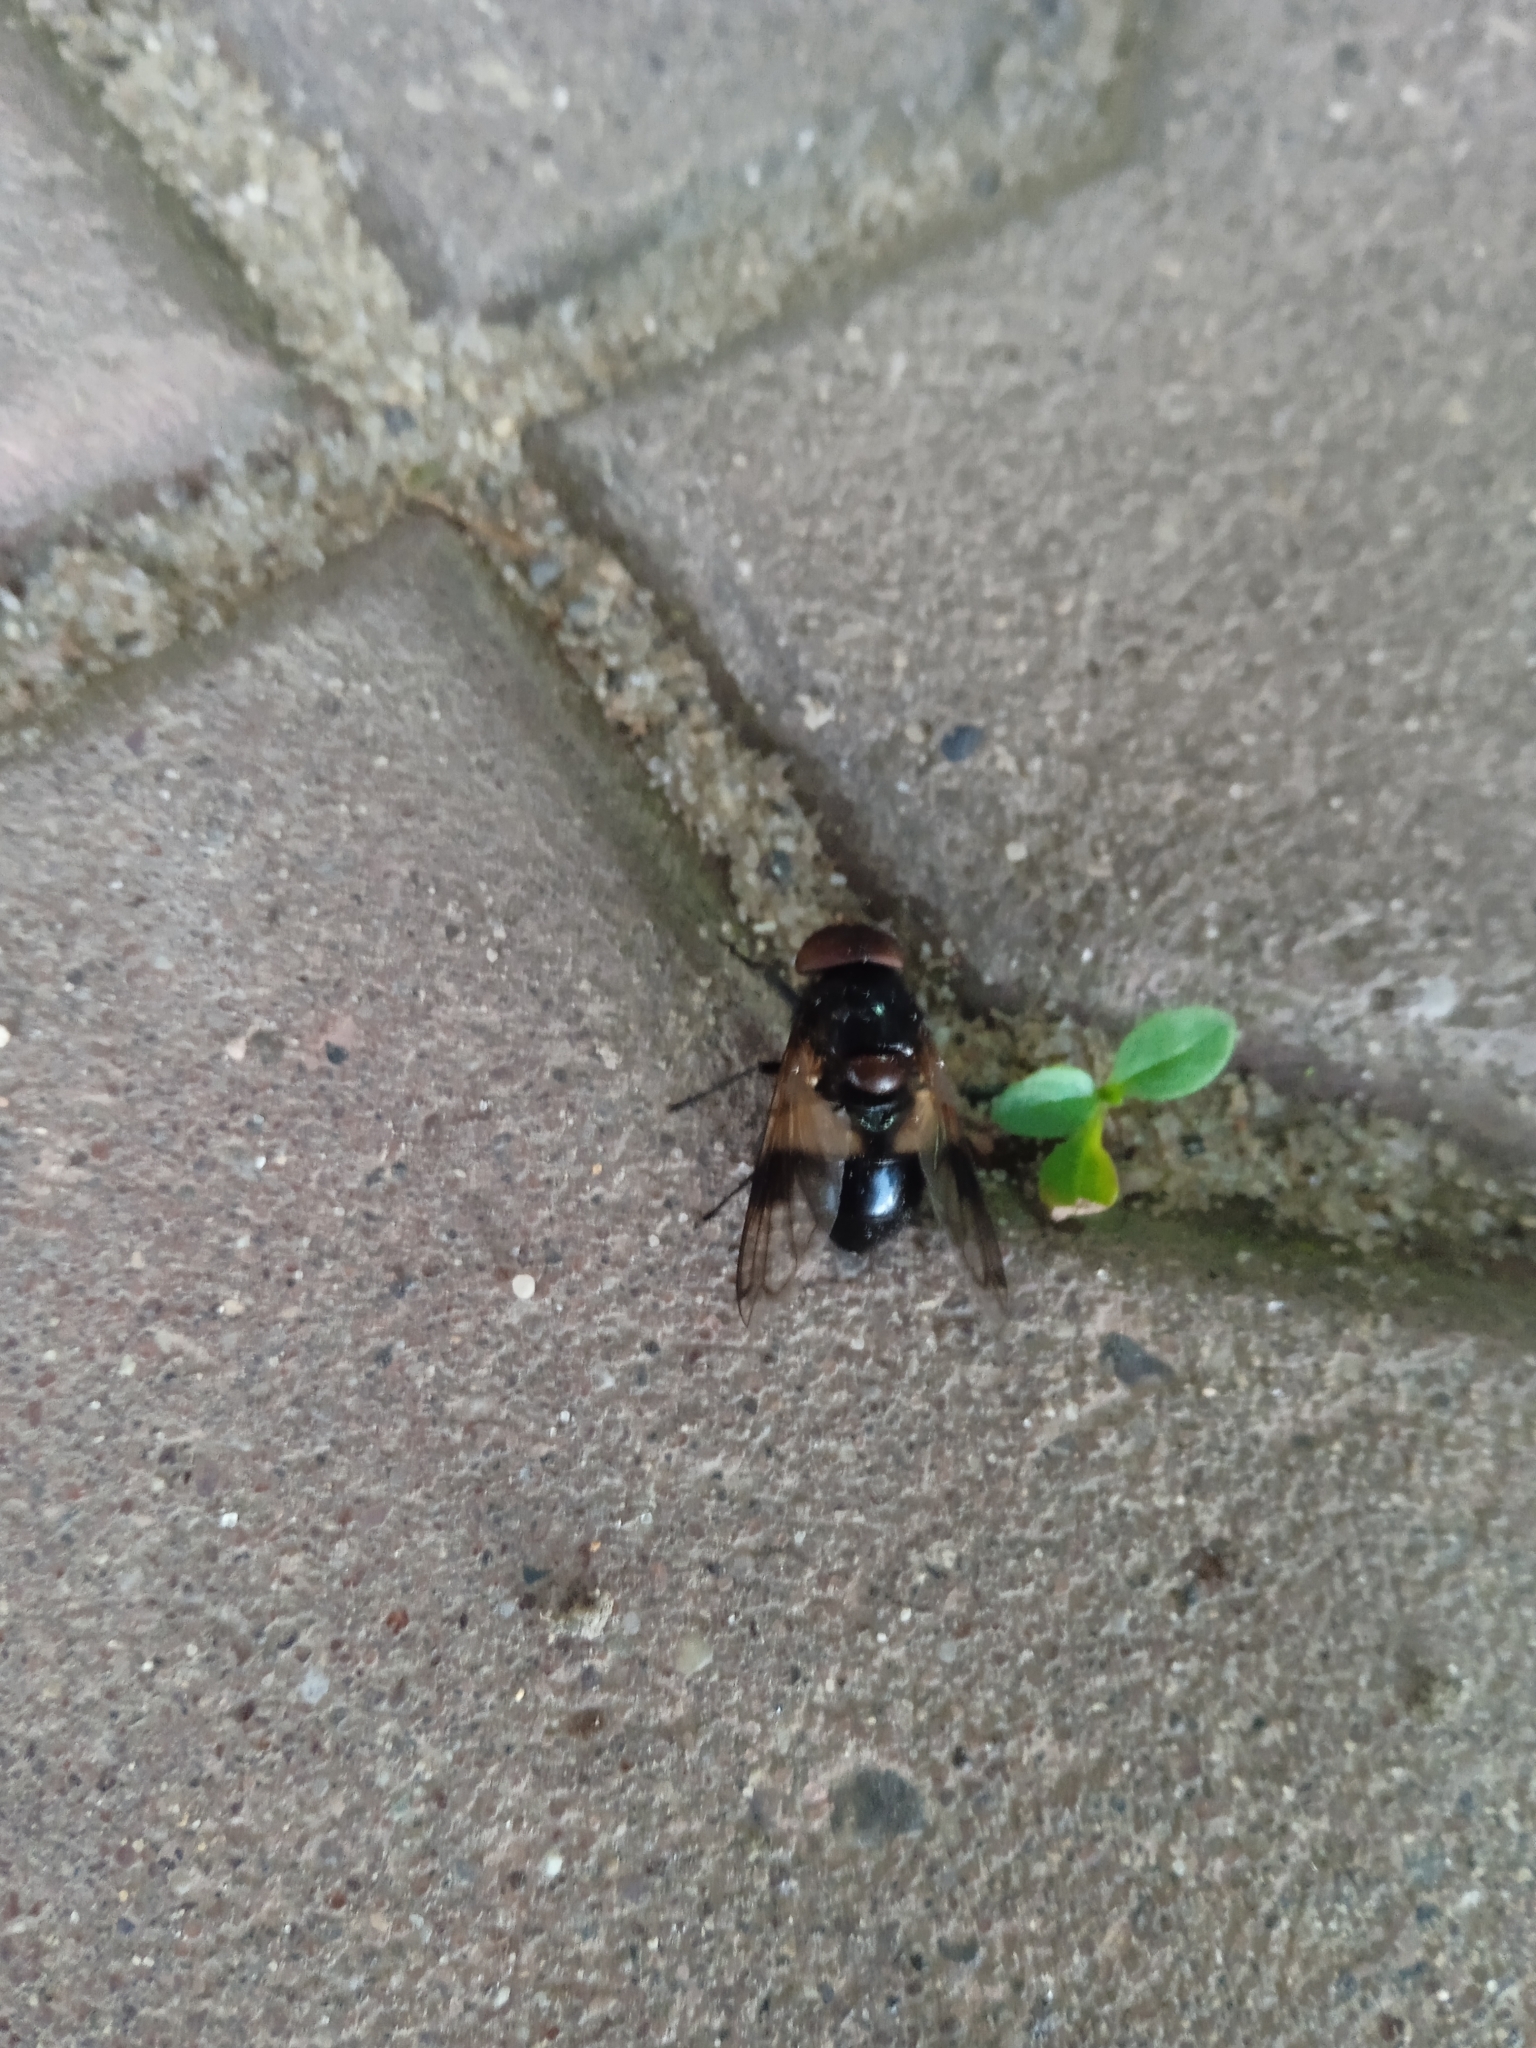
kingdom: Animalia
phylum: Arthropoda
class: Insecta
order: Diptera
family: Syrphidae
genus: Volucella
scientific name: Volucella pellucens
